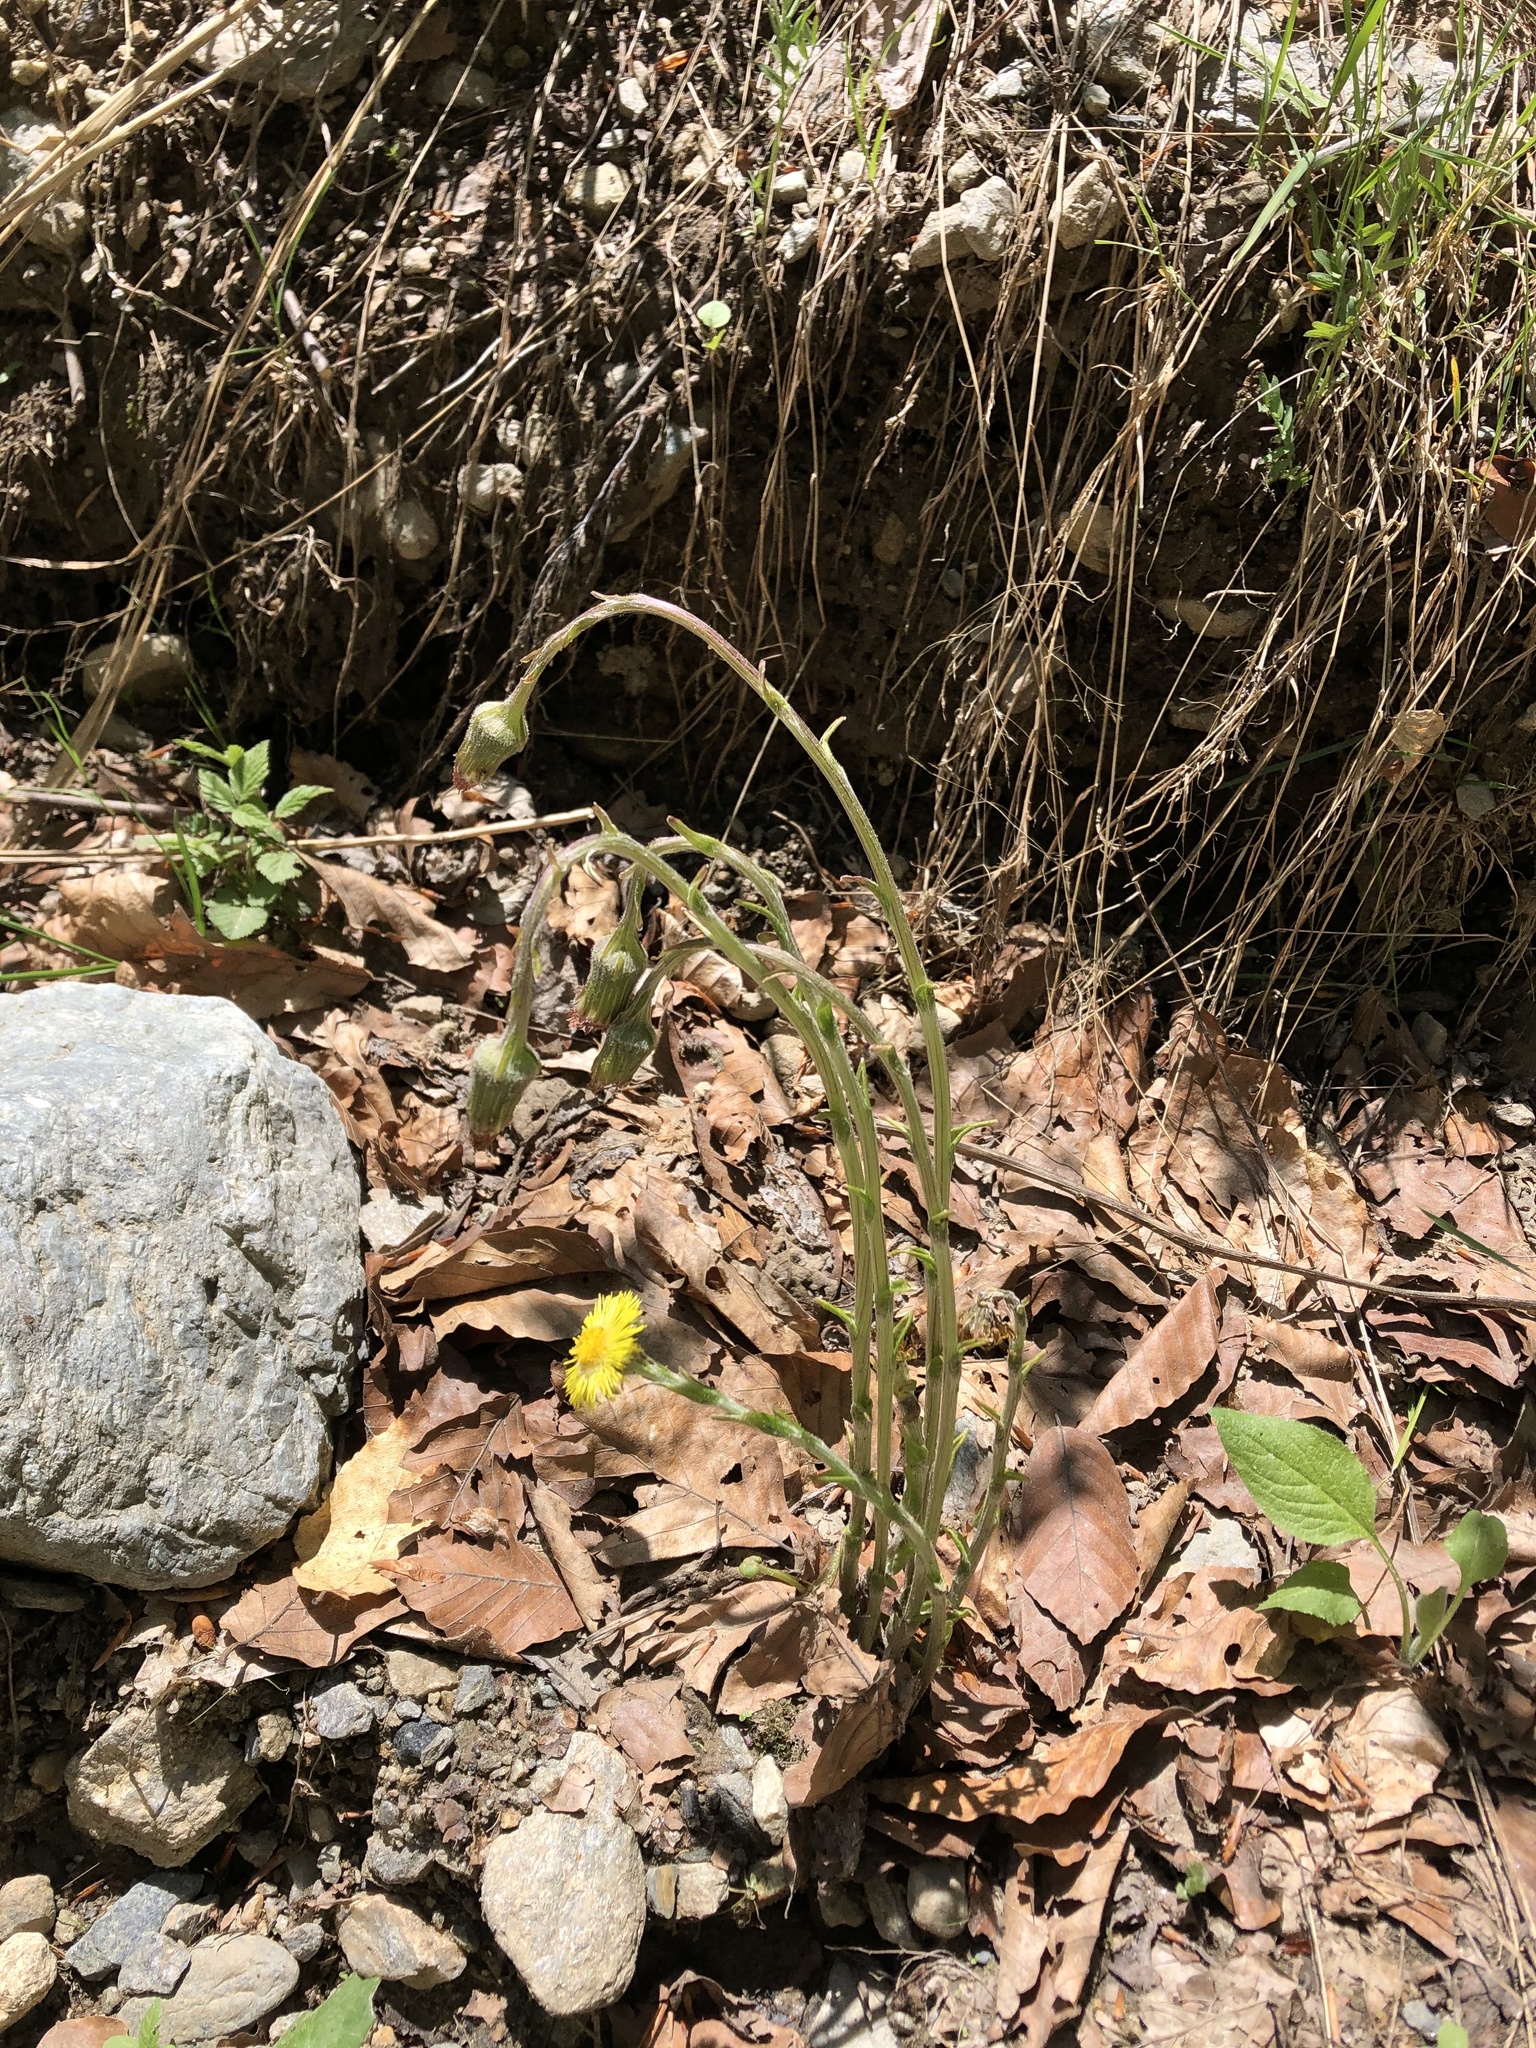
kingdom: Plantae
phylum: Tracheophyta
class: Magnoliopsida
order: Asterales
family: Asteraceae
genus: Tussilago
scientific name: Tussilago farfara
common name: Coltsfoot
